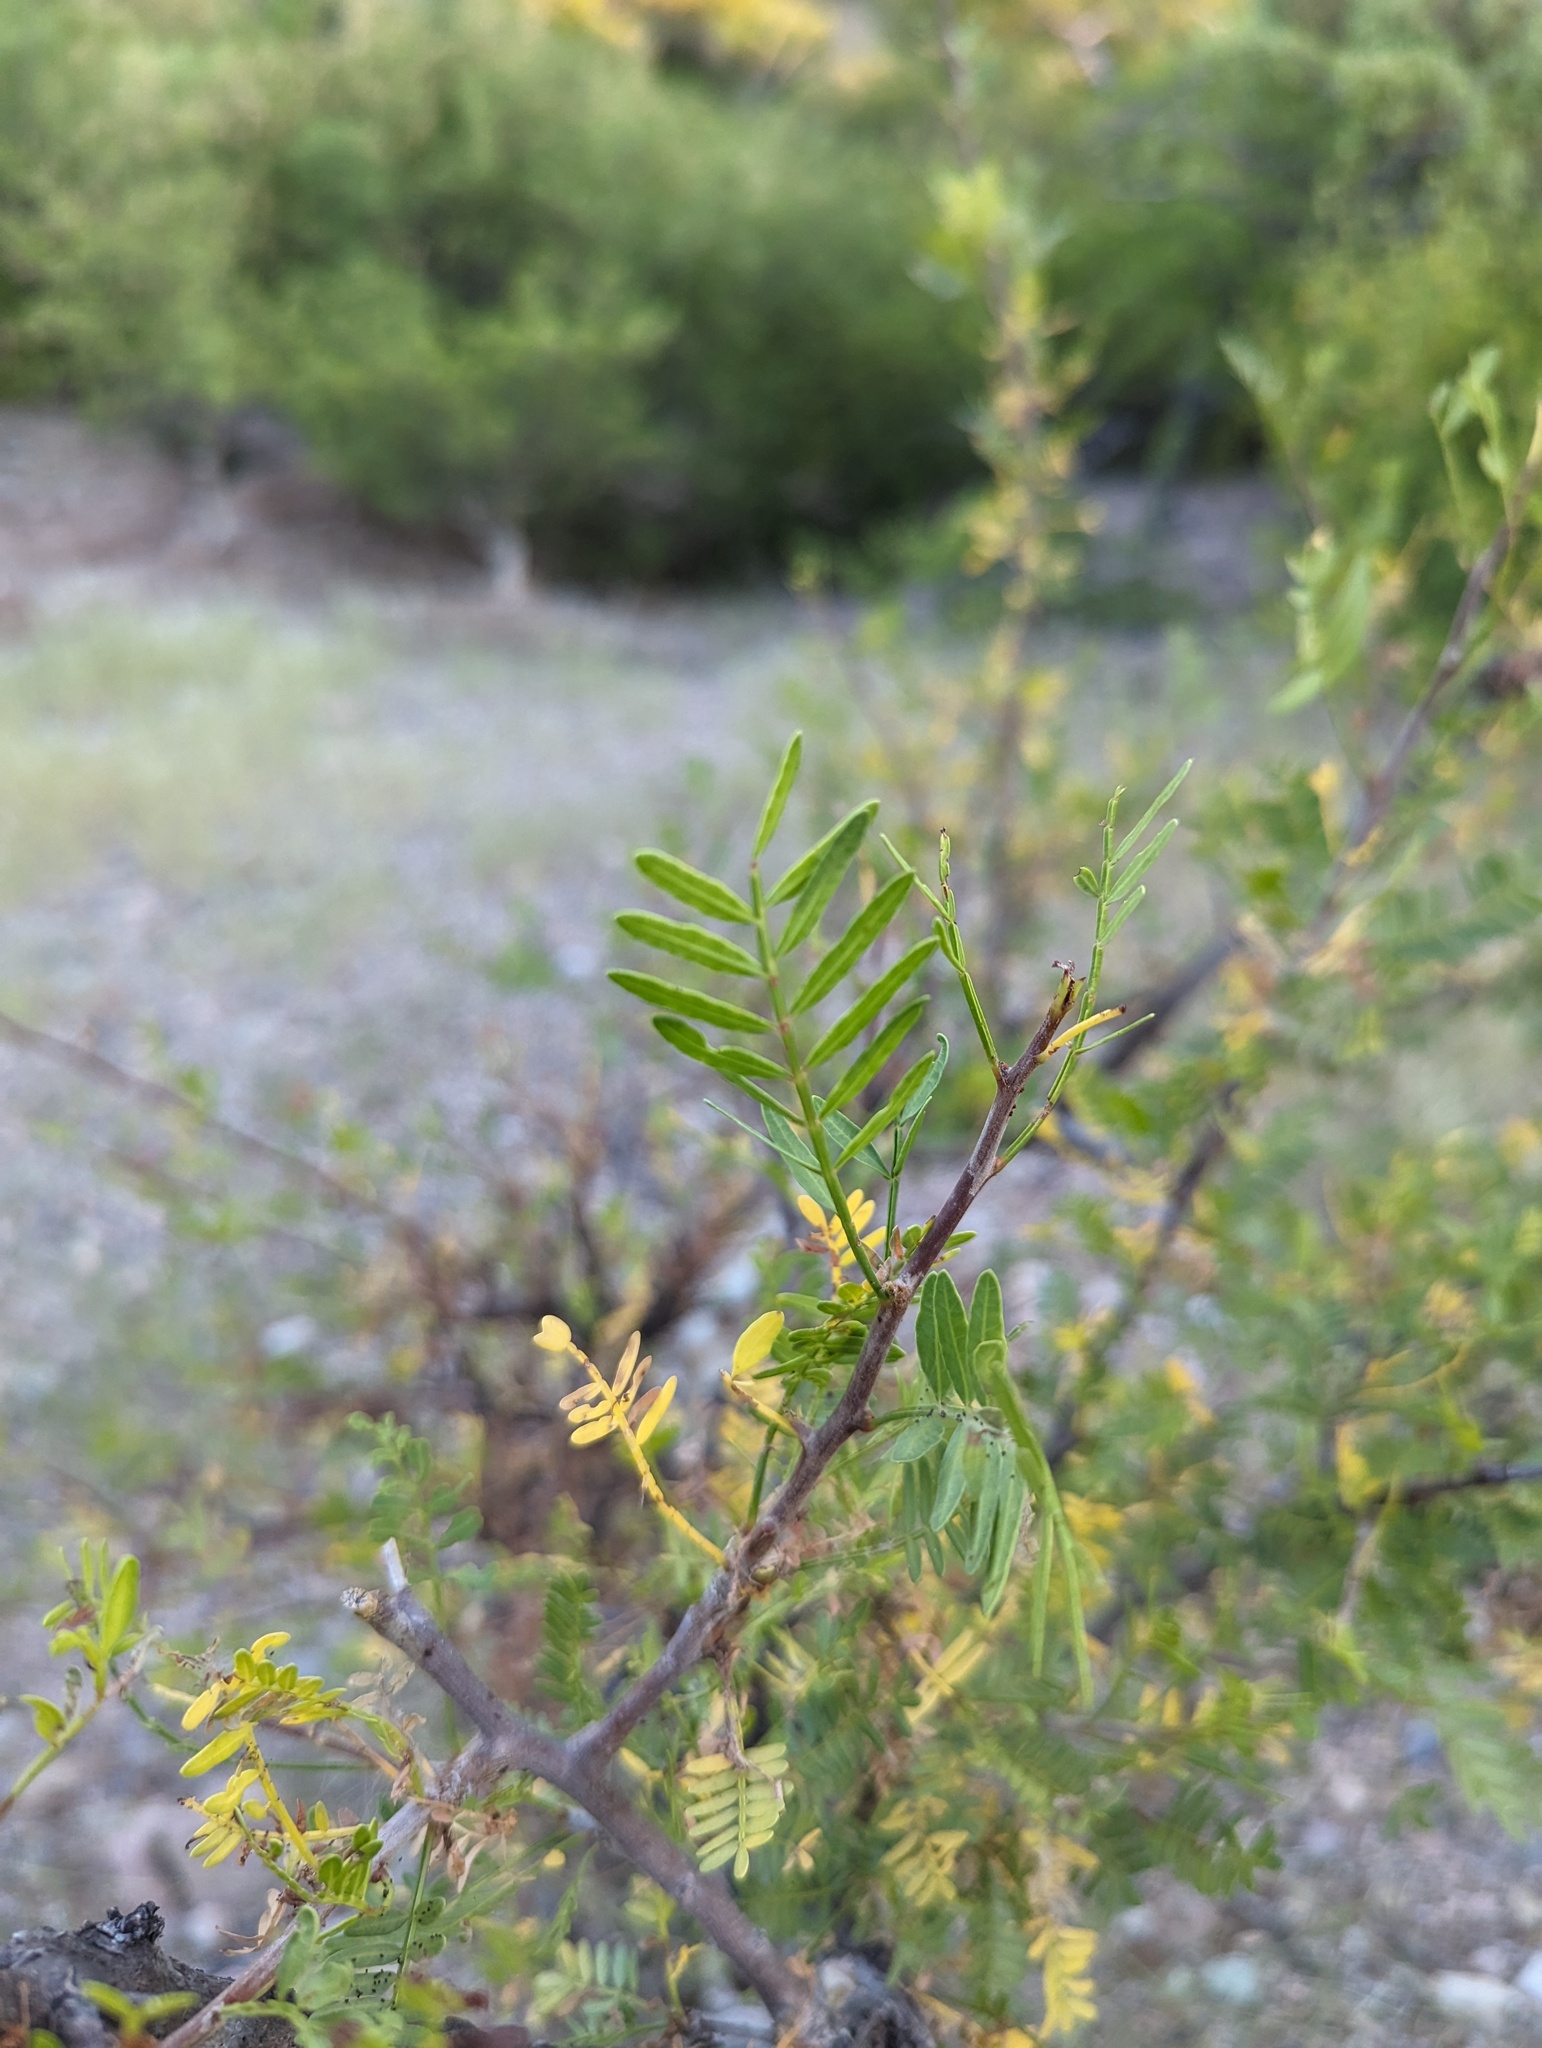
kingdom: Plantae
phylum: Tracheophyta
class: Magnoliopsida
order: Sapindales
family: Burseraceae
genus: Bursera
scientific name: Bursera microphylla
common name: Elephant tree
